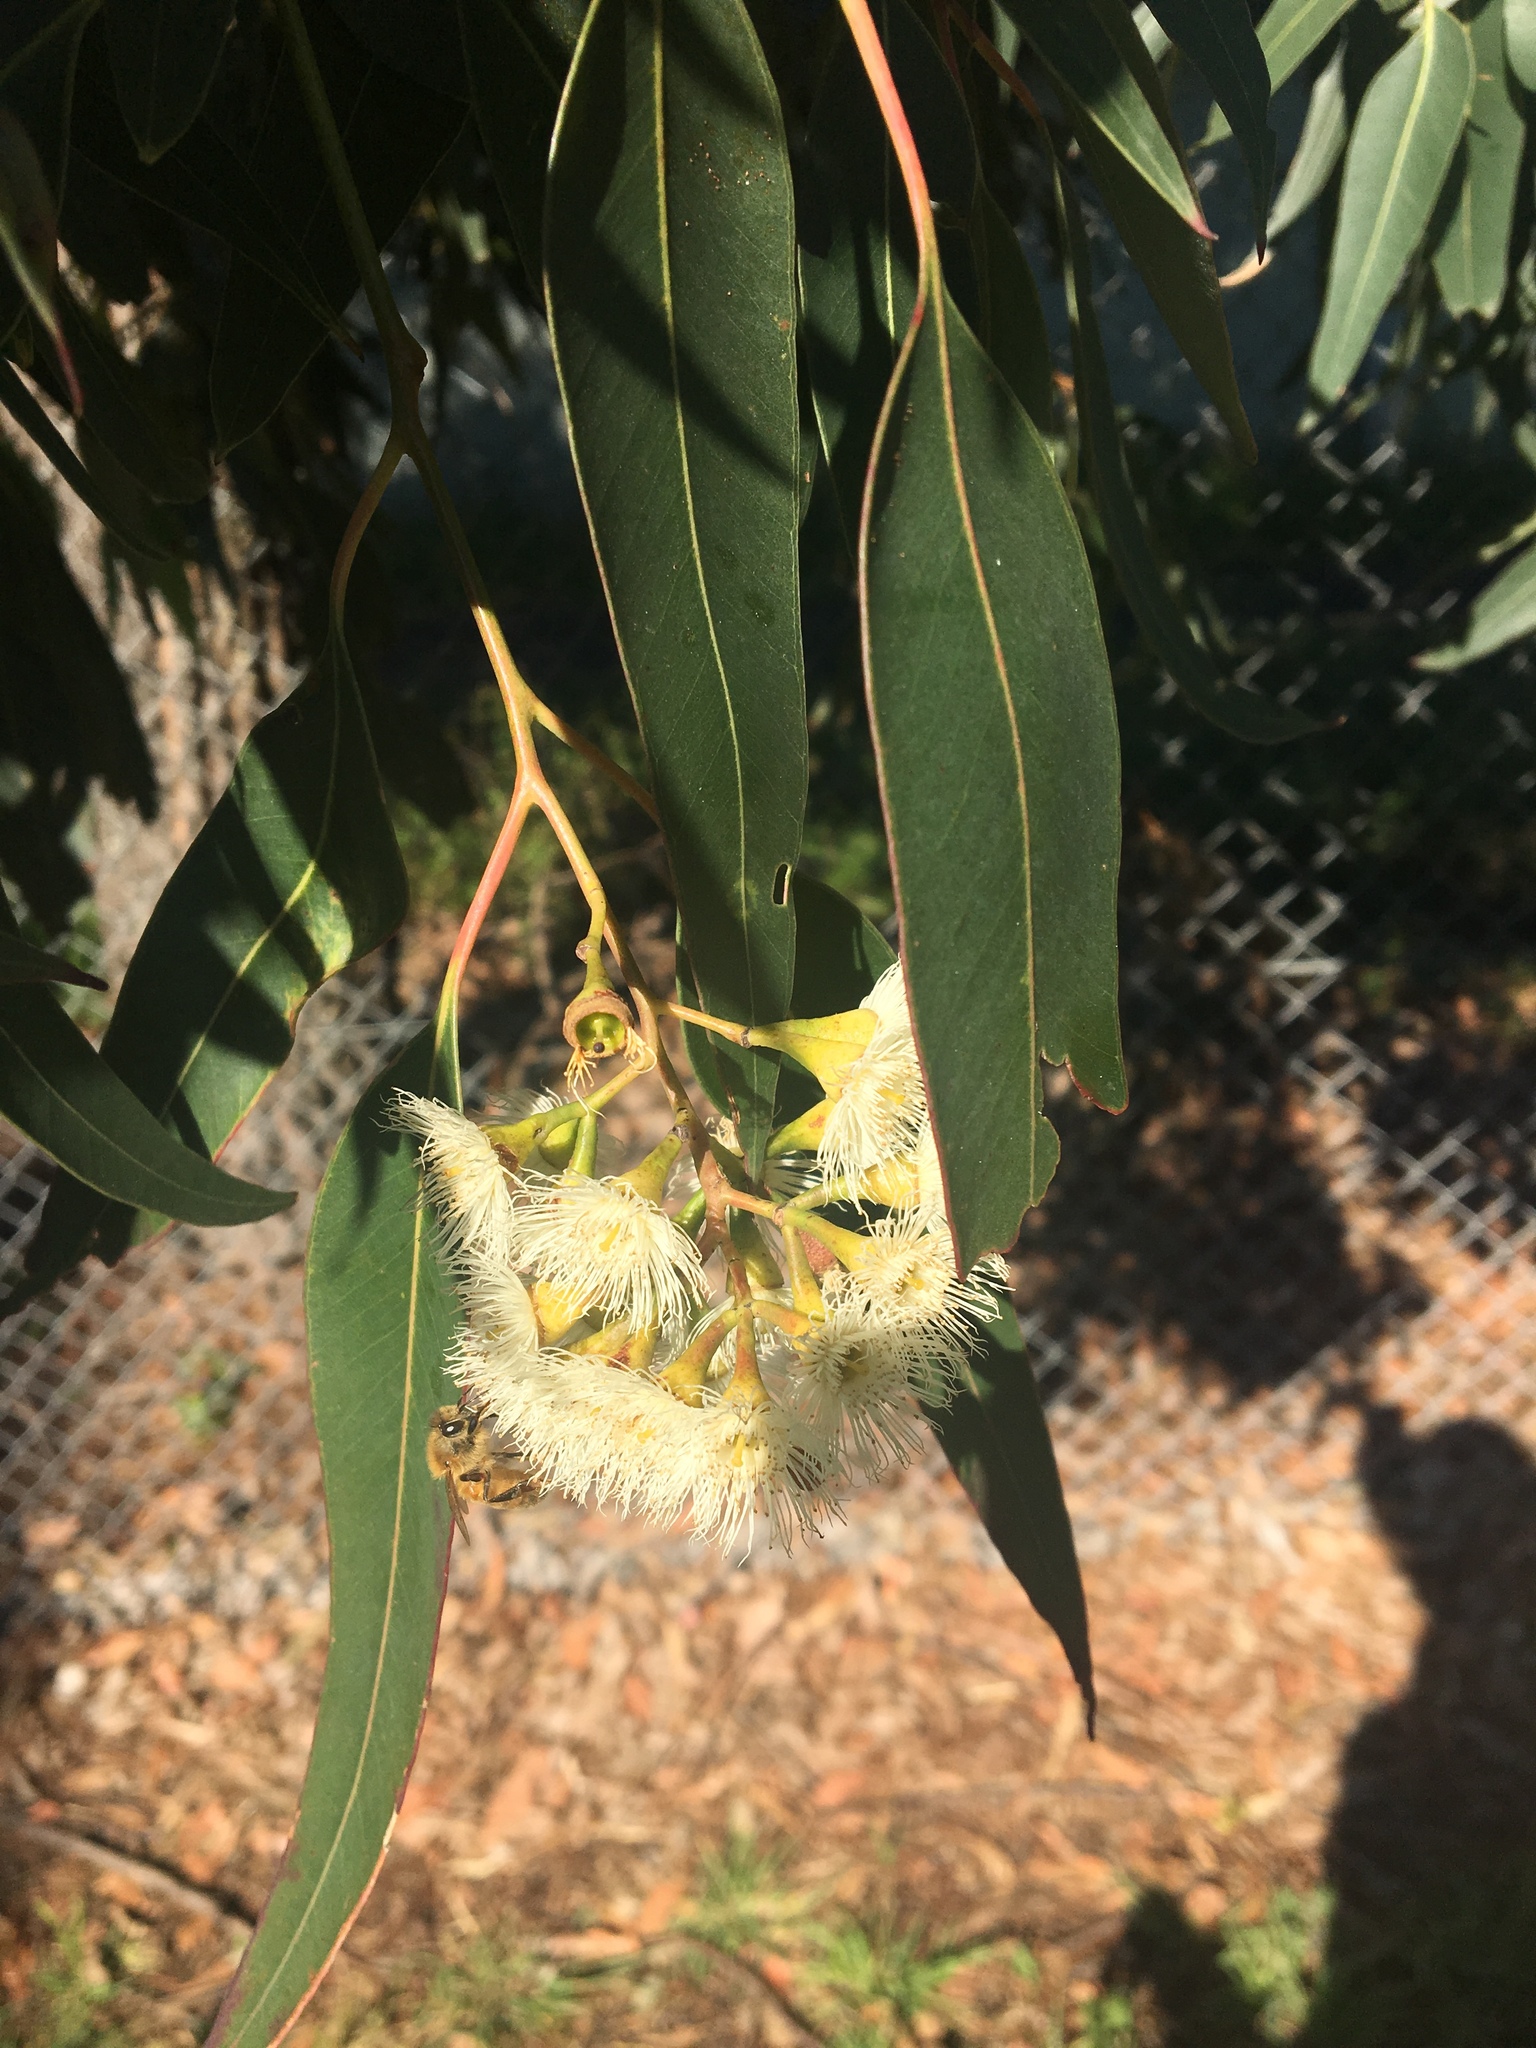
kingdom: Animalia
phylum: Arthropoda
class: Insecta
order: Hymenoptera
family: Apidae
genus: Apis
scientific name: Apis mellifera
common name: Honey bee
